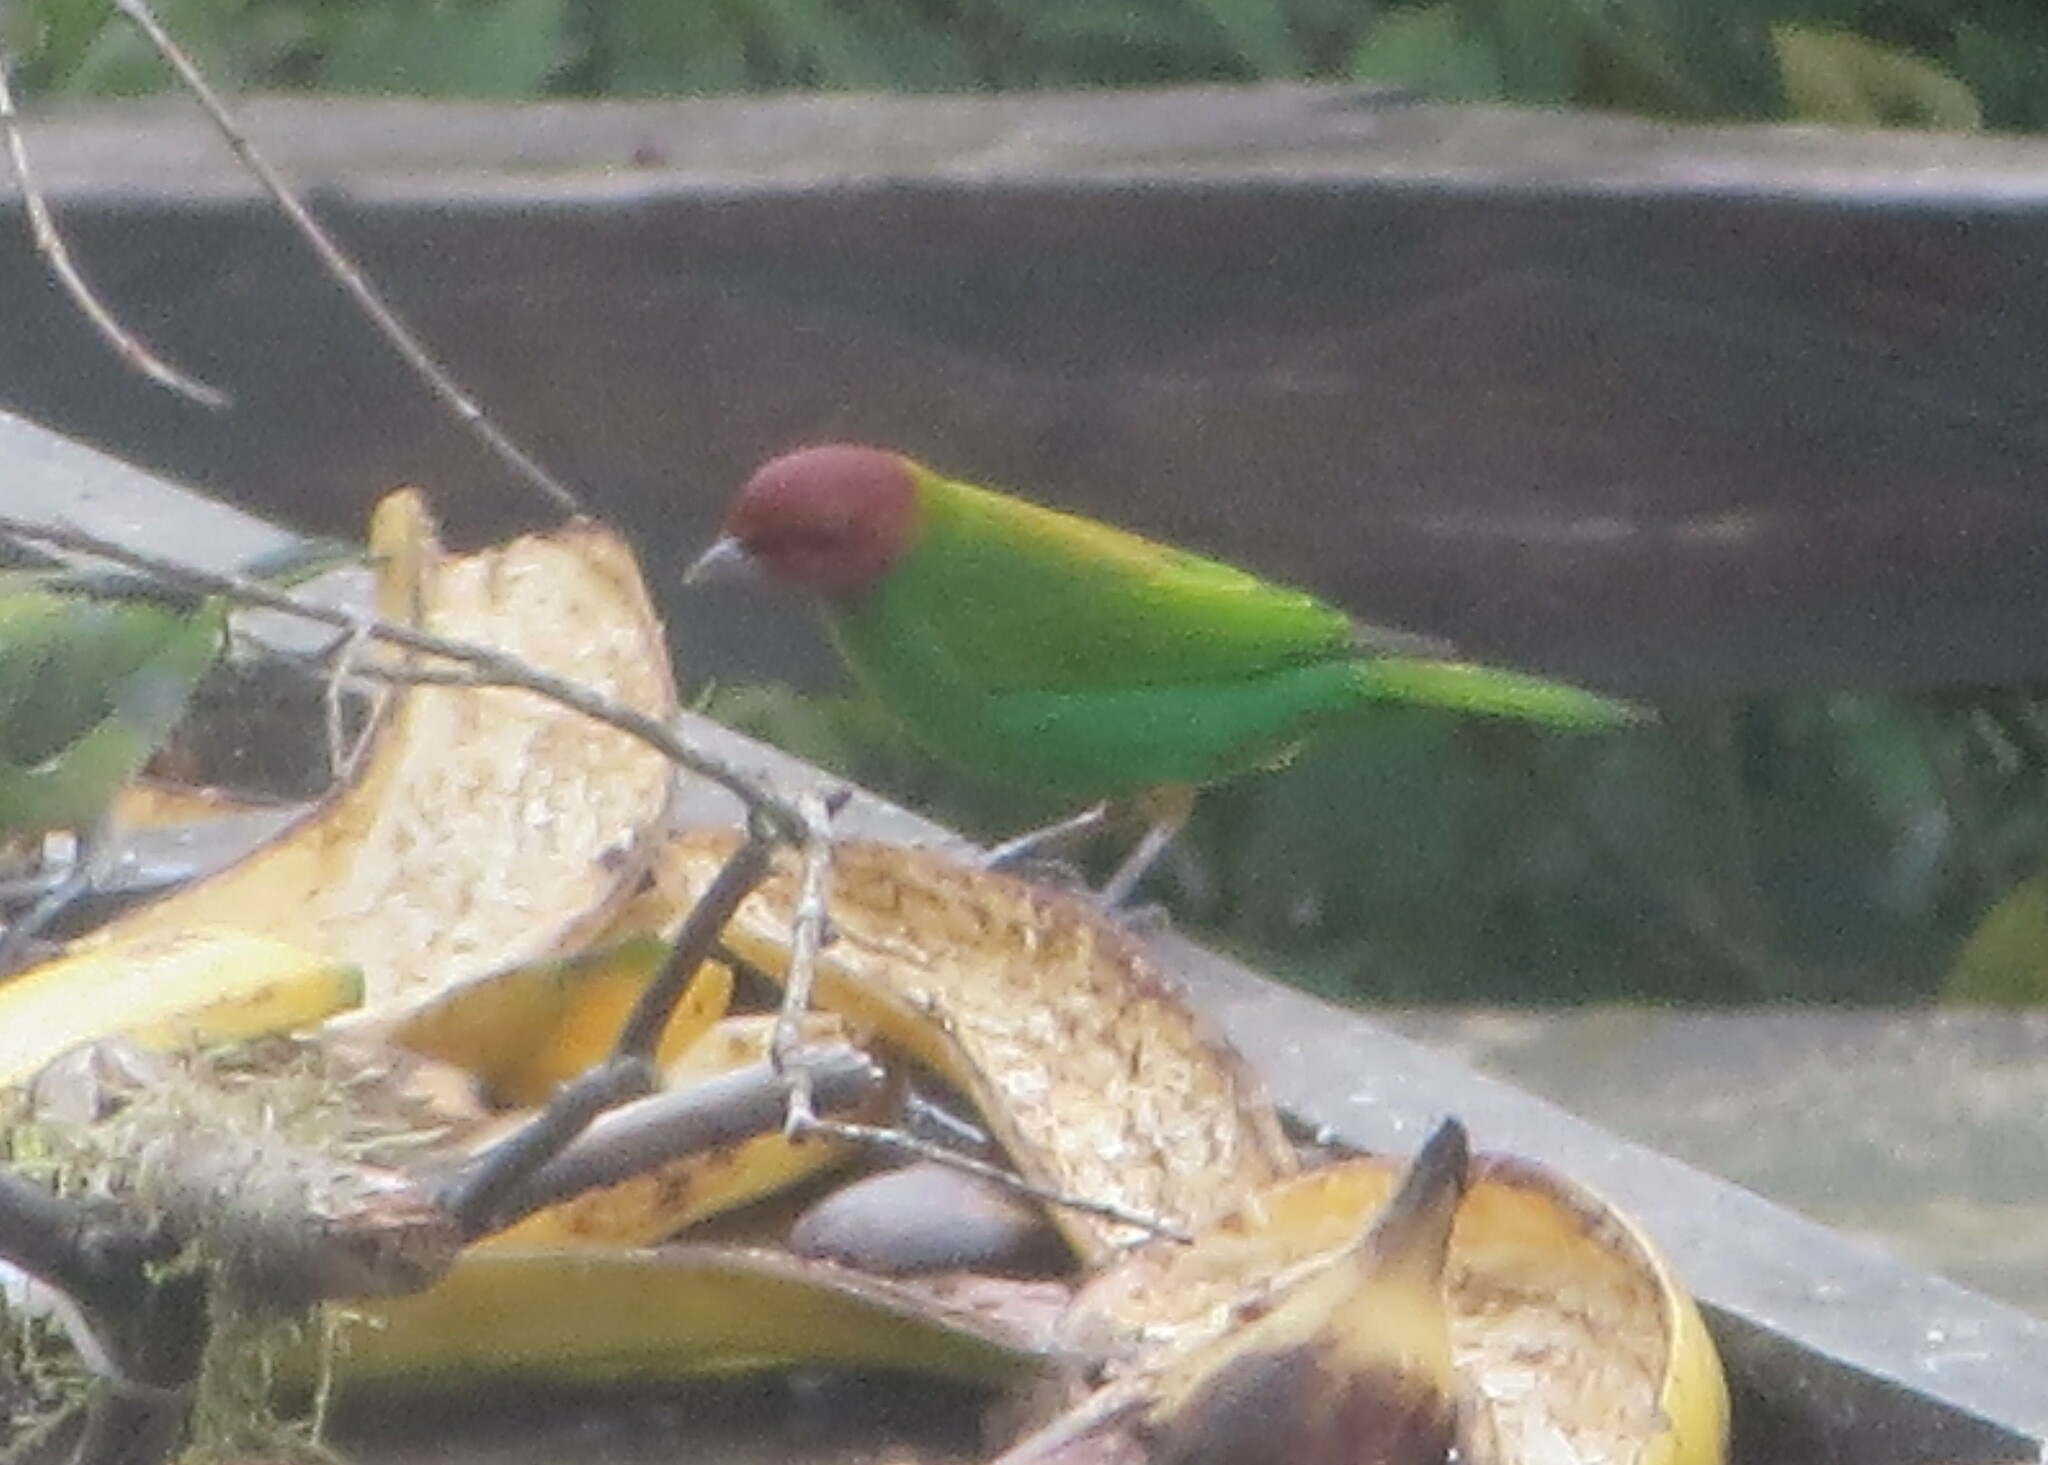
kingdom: Animalia
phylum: Chordata
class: Aves
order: Passeriformes
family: Thraupidae
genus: Tangara
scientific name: Tangara gyrola
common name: Bay-headed tanager
